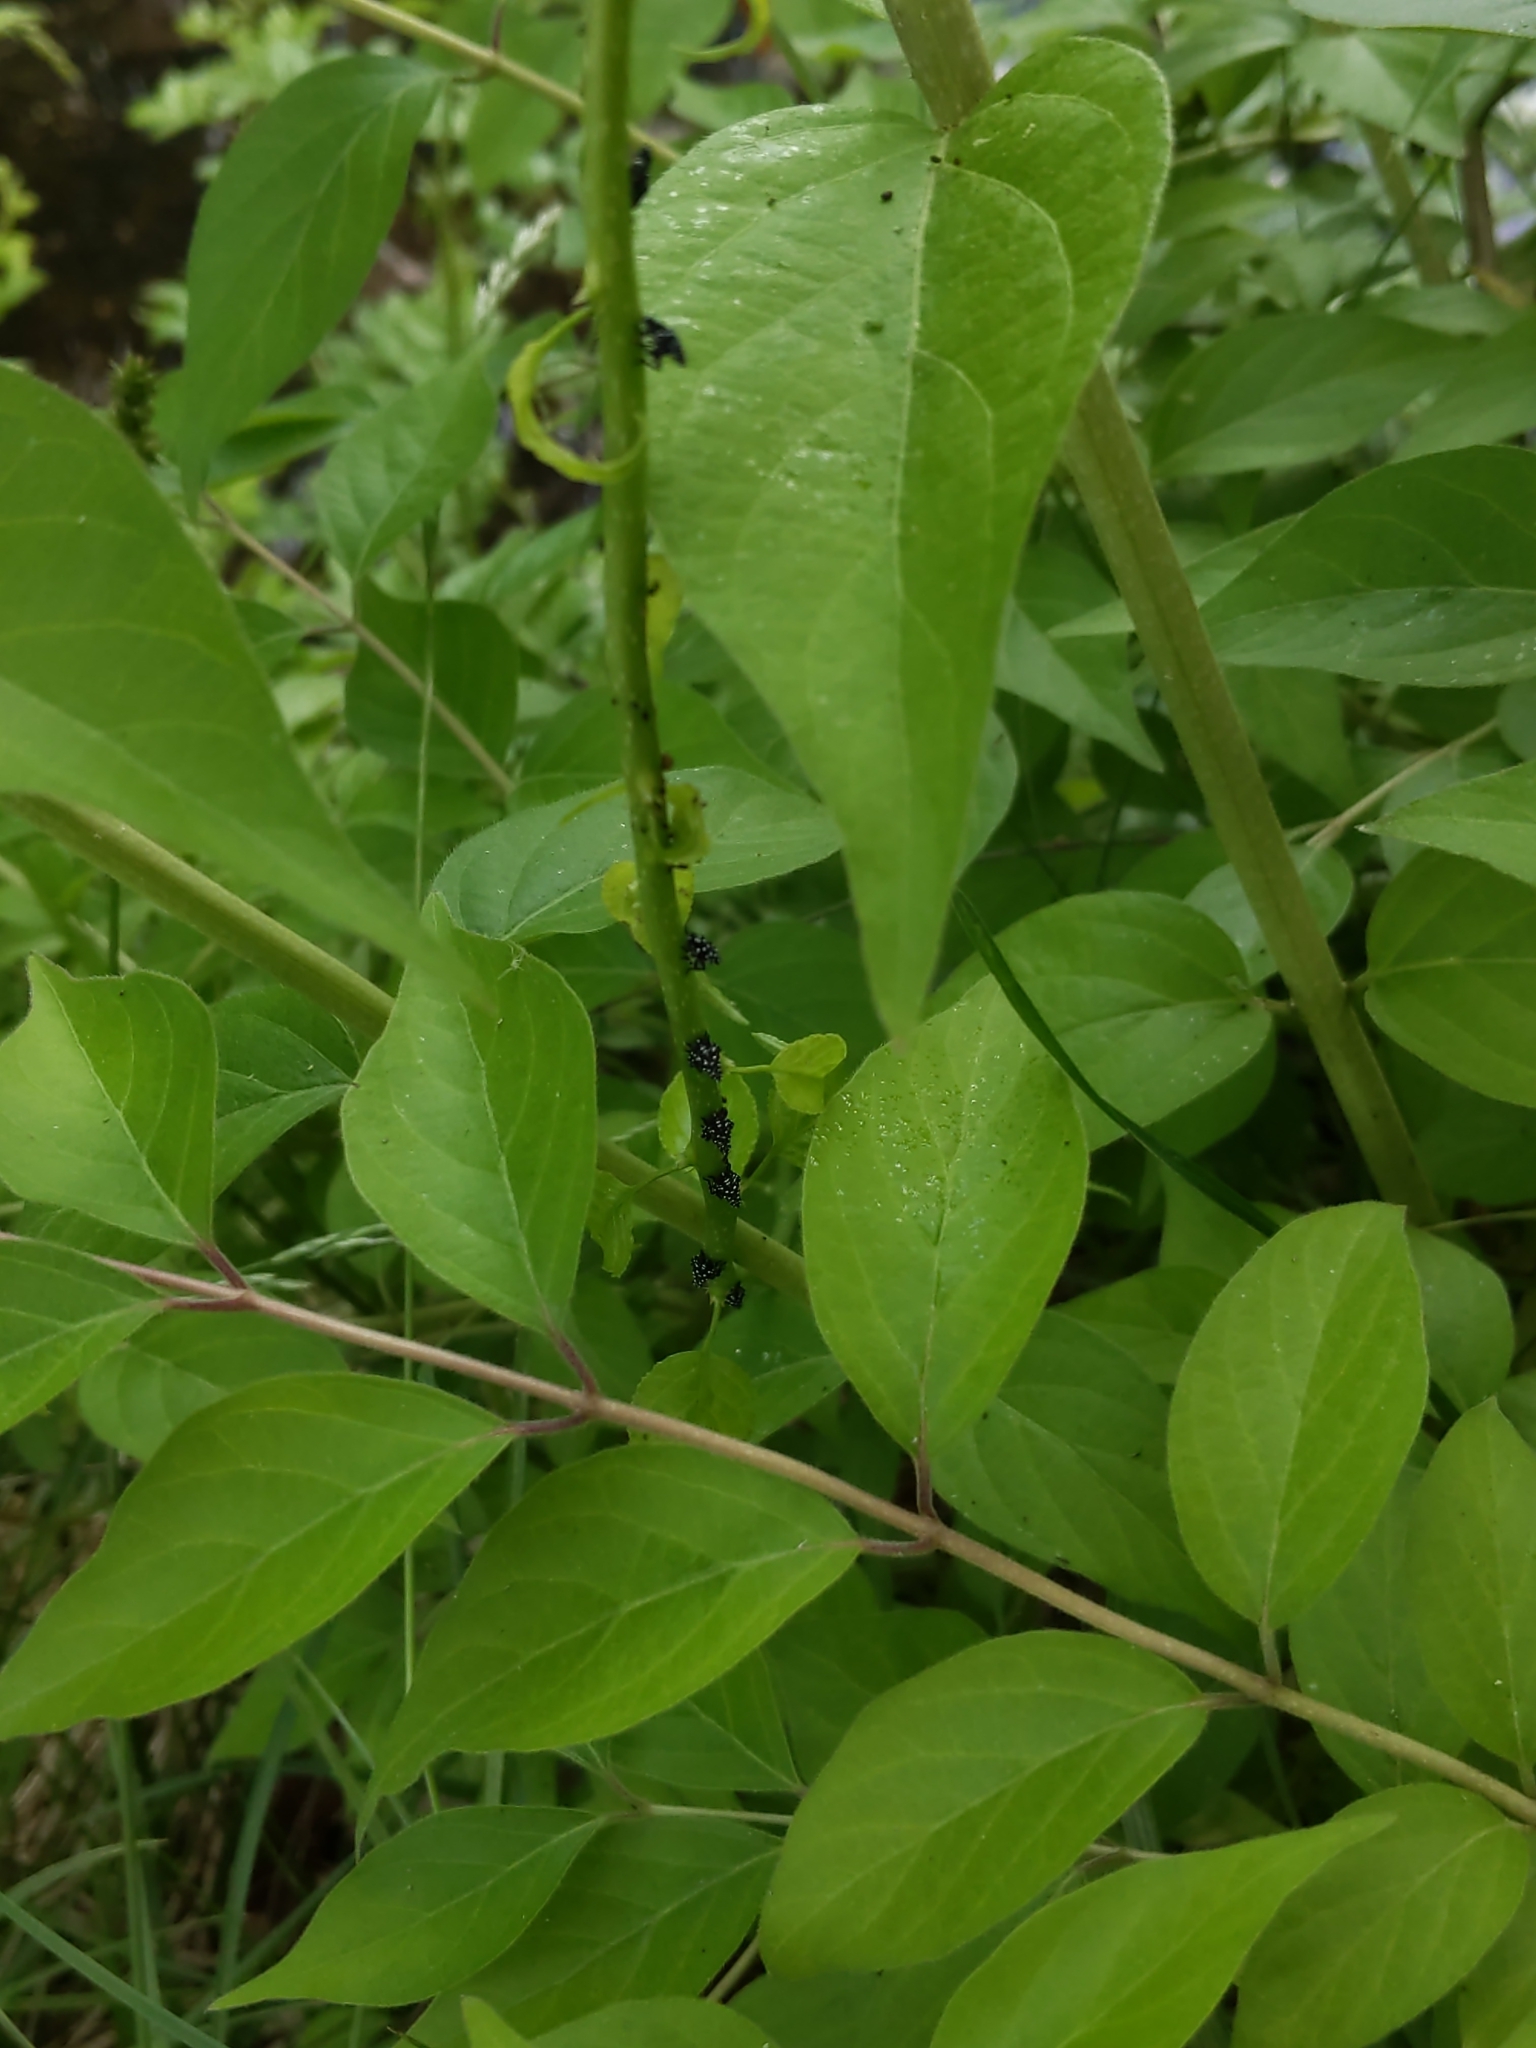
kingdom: Plantae
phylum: Tracheophyta
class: Magnoliopsida
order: Dipsacales
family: Caprifoliaceae
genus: Lonicera
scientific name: Lonicera maackii
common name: Amur honeysuckle
